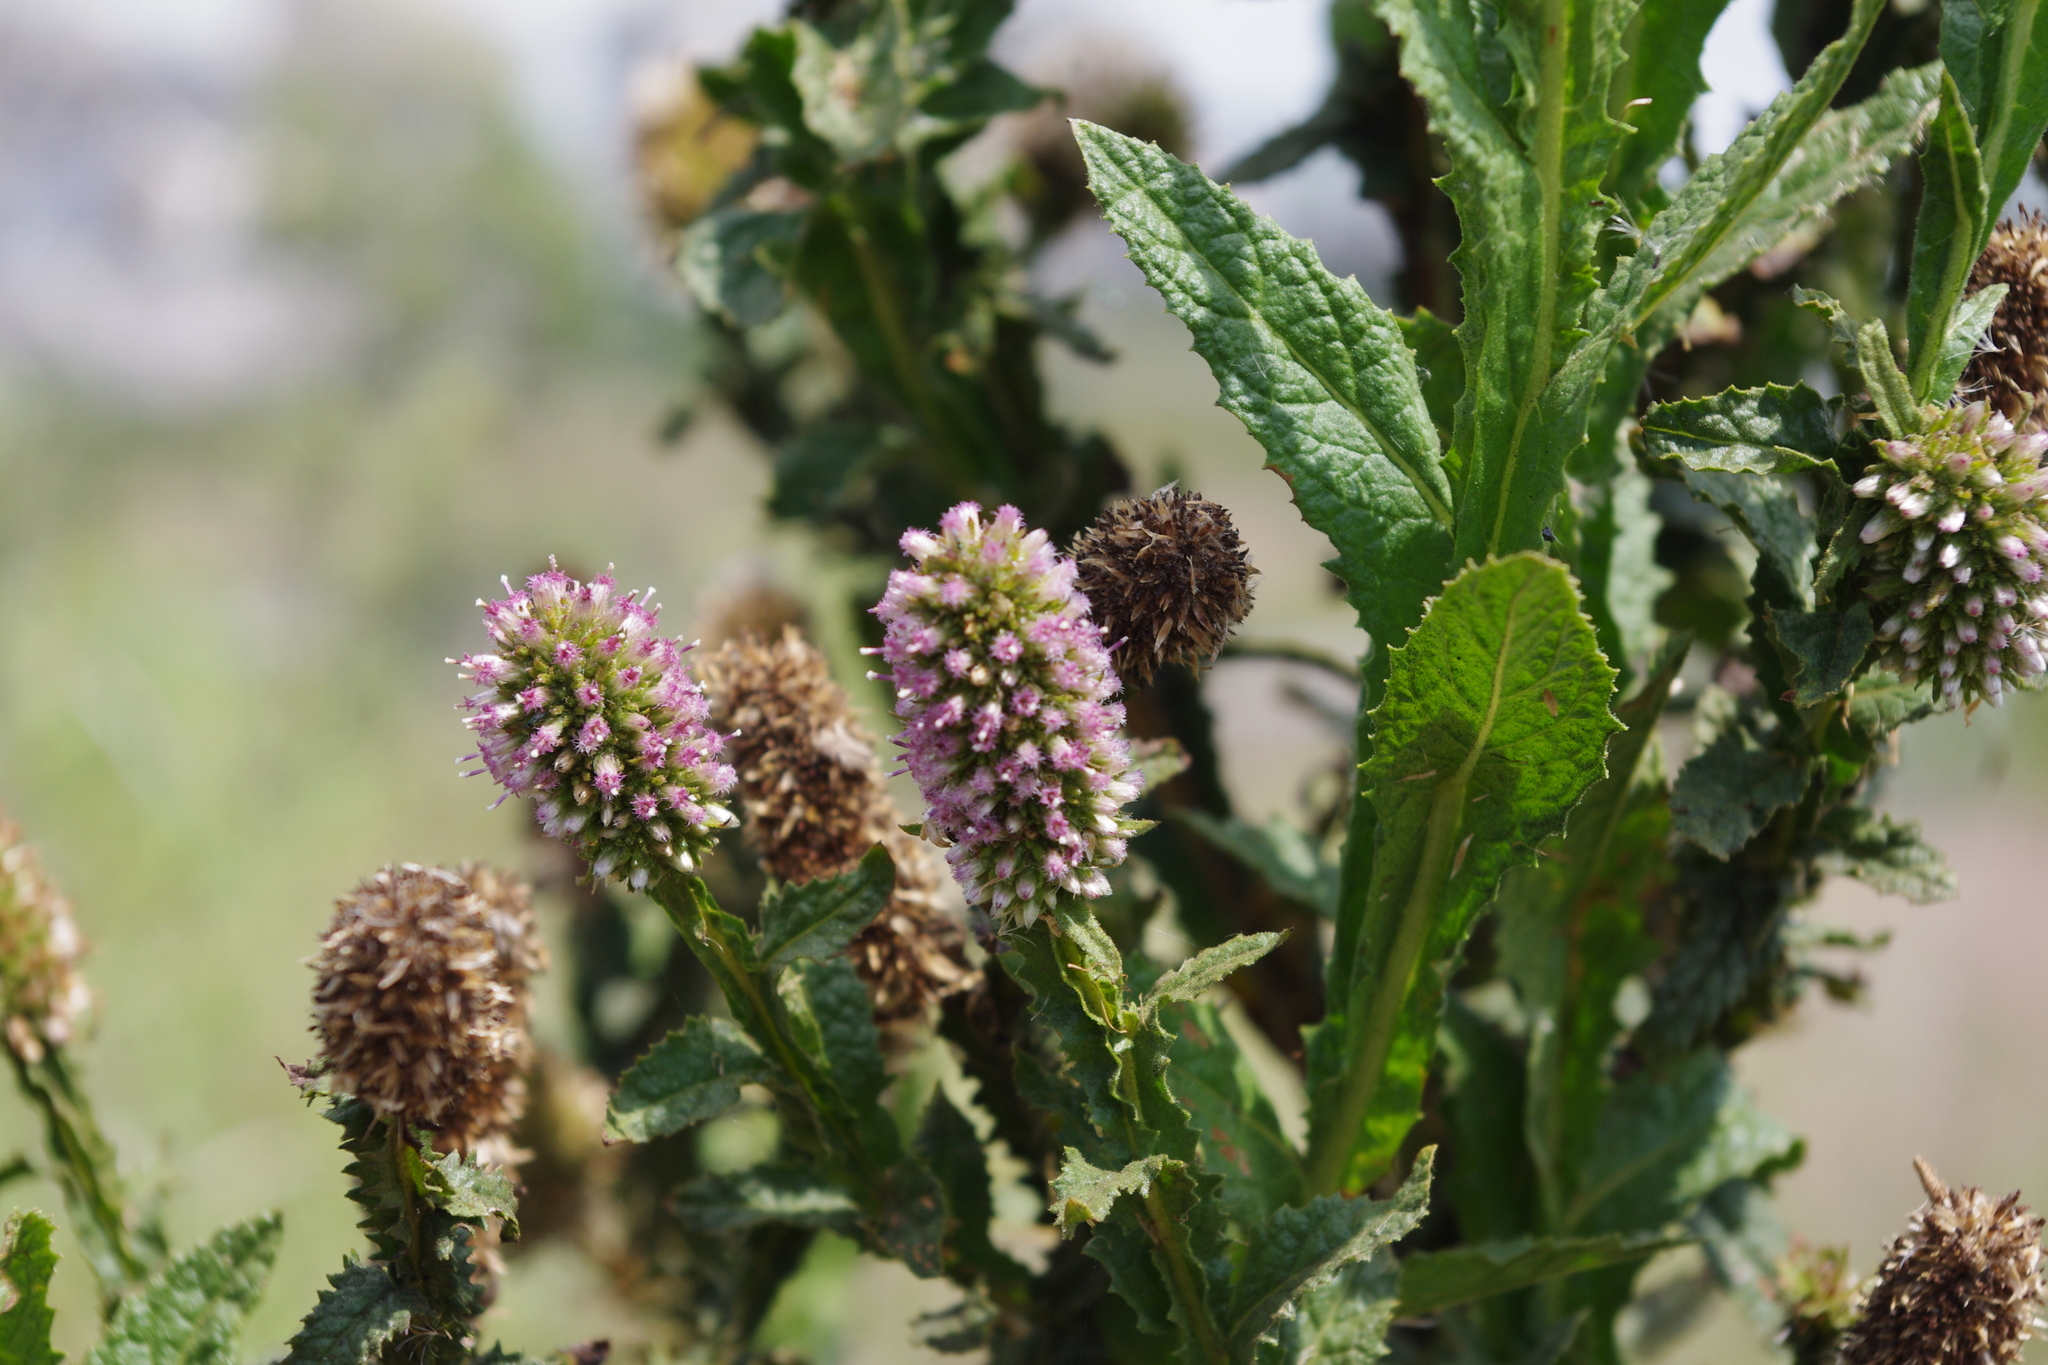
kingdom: Plantae
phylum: Tracheophyta
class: Magnoliopsida
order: Asterales
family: Asteraceae
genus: Pterocaulon
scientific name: Pterocaulon serrulatum
